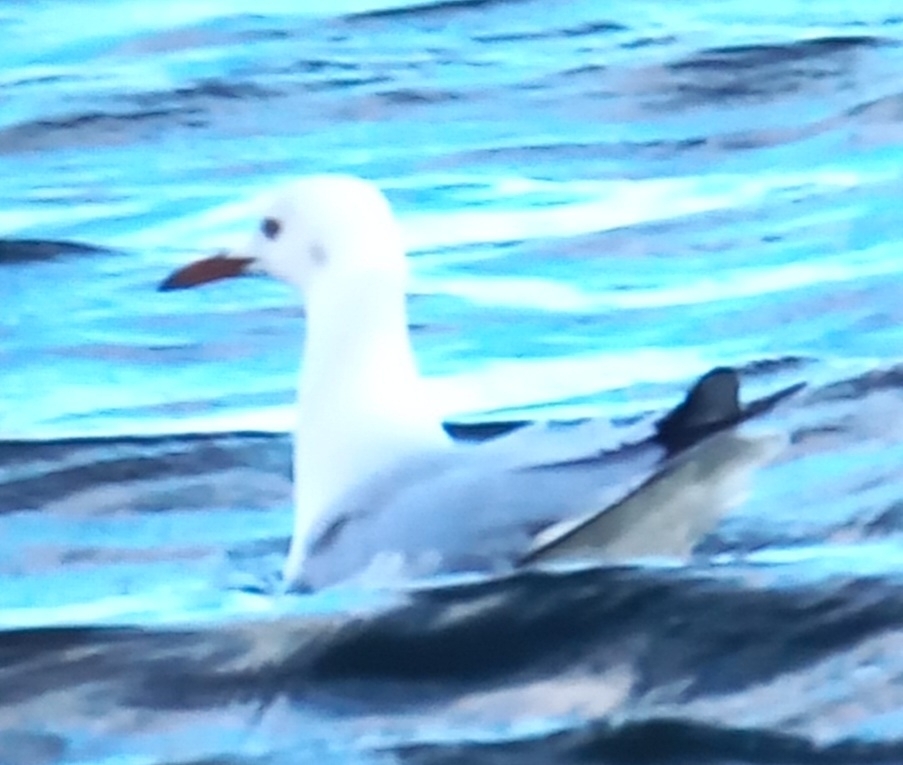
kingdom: Animalia
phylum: Chordata
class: Aves
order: Charadriiformes
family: Laridae
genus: Chroicocephalus
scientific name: Chroicocephalus genei
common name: Slender-billed gull
